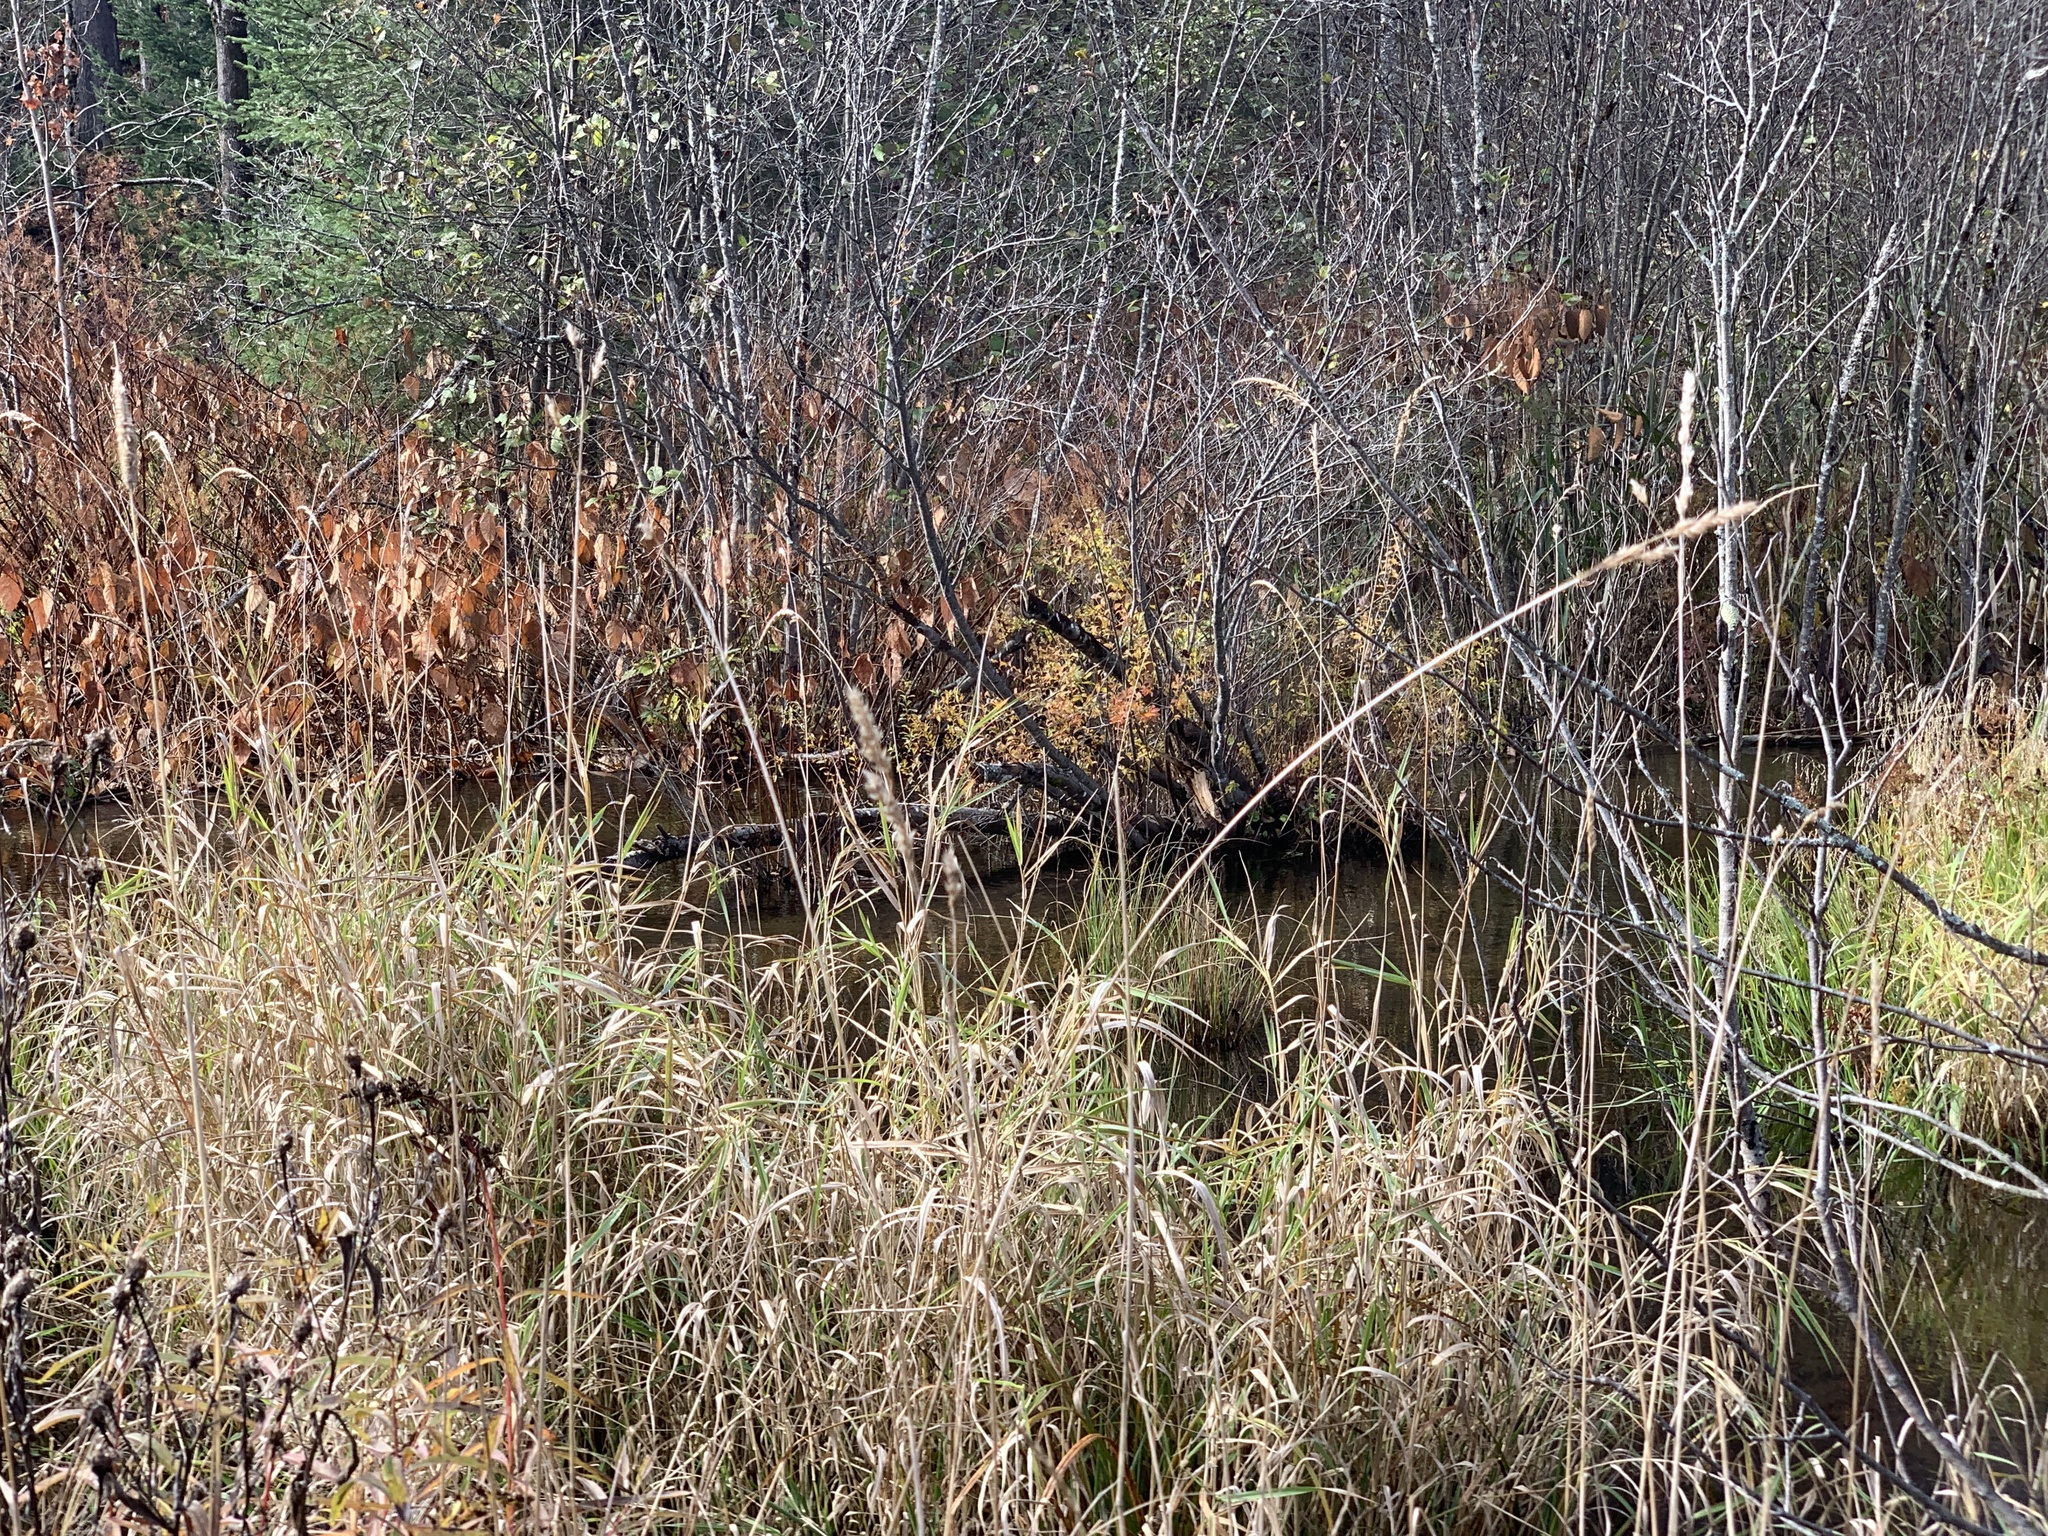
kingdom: Plantae
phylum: Tracheophyta
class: Liliopsida
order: Poales
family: Poaceae
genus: Phalaris
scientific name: Phalaris arundinacea
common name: Reed canary-grass
